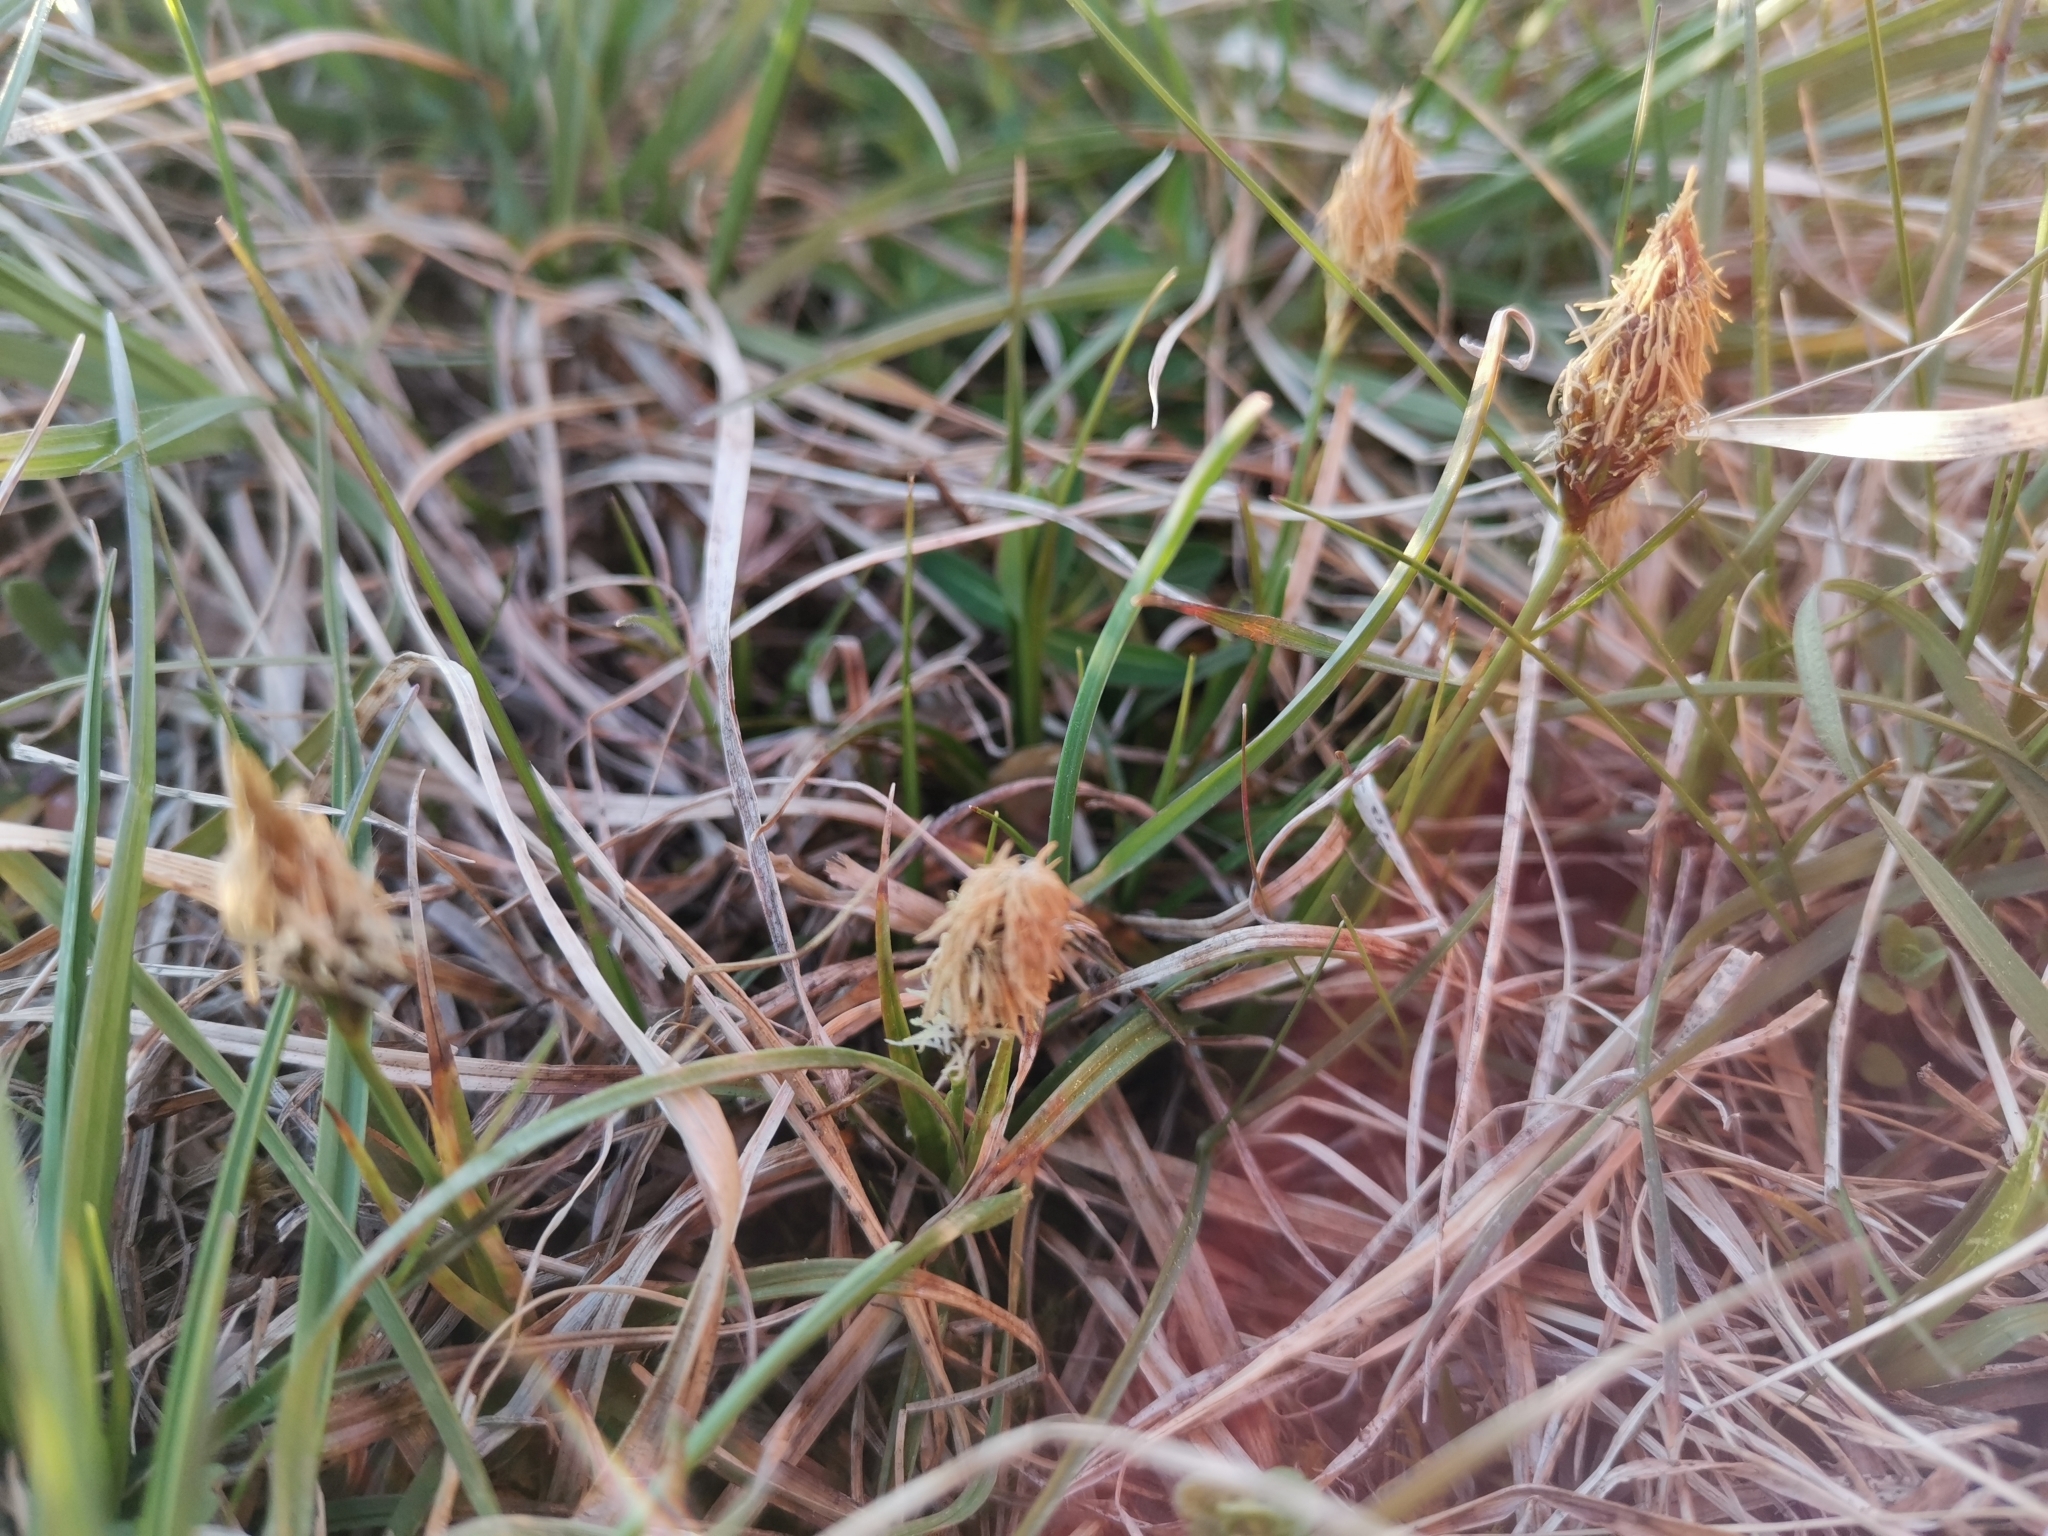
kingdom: Plantae
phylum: Tracheophyta
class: Liliopsida
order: Poales
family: Cyperaceae
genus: Carex
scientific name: Carex caryophyllea
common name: Spring sedge
